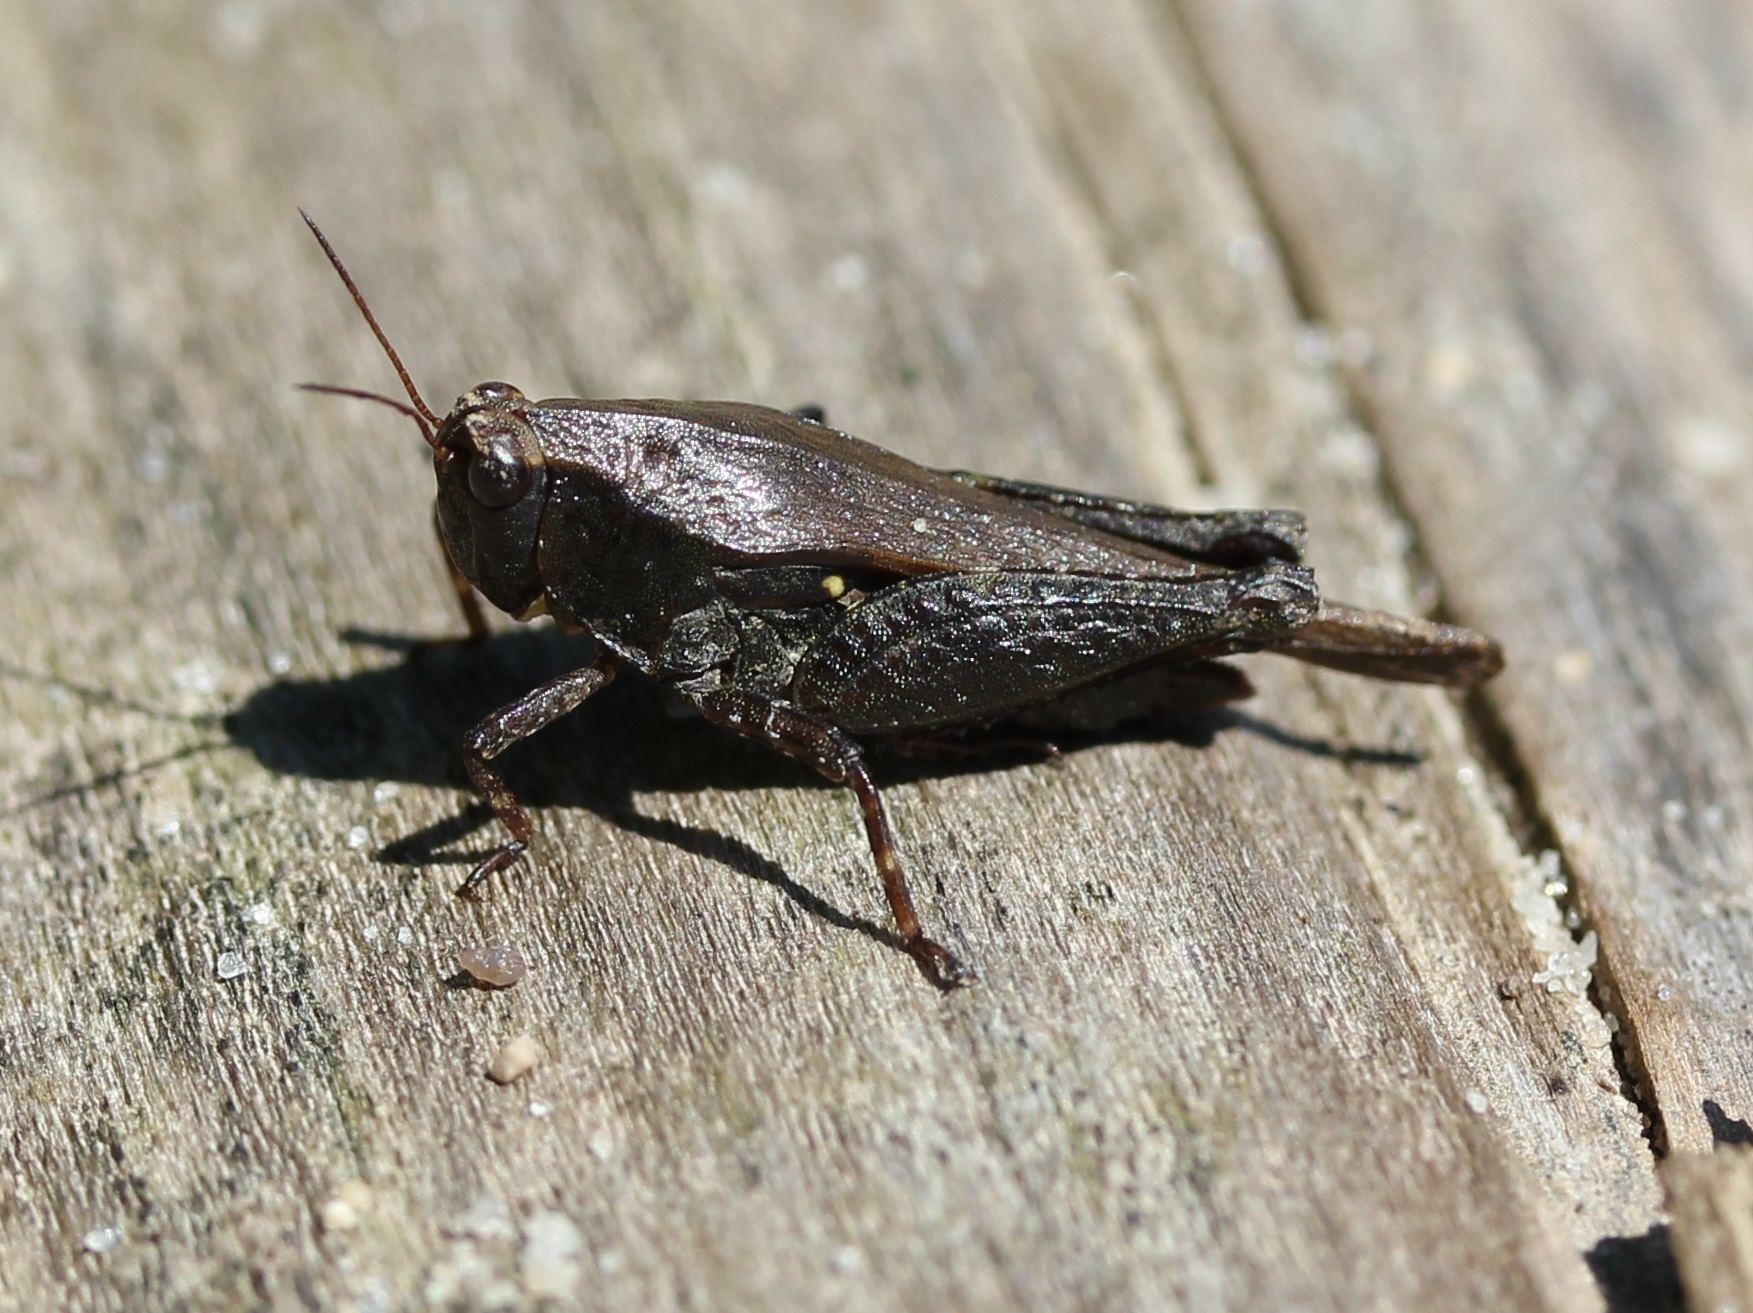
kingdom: Animalia
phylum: Arthropoda
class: Insecta
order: Orthoptera
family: Tetrigidae
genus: Tettigidea
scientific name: Tettigidea armata
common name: Spined grouse locust
